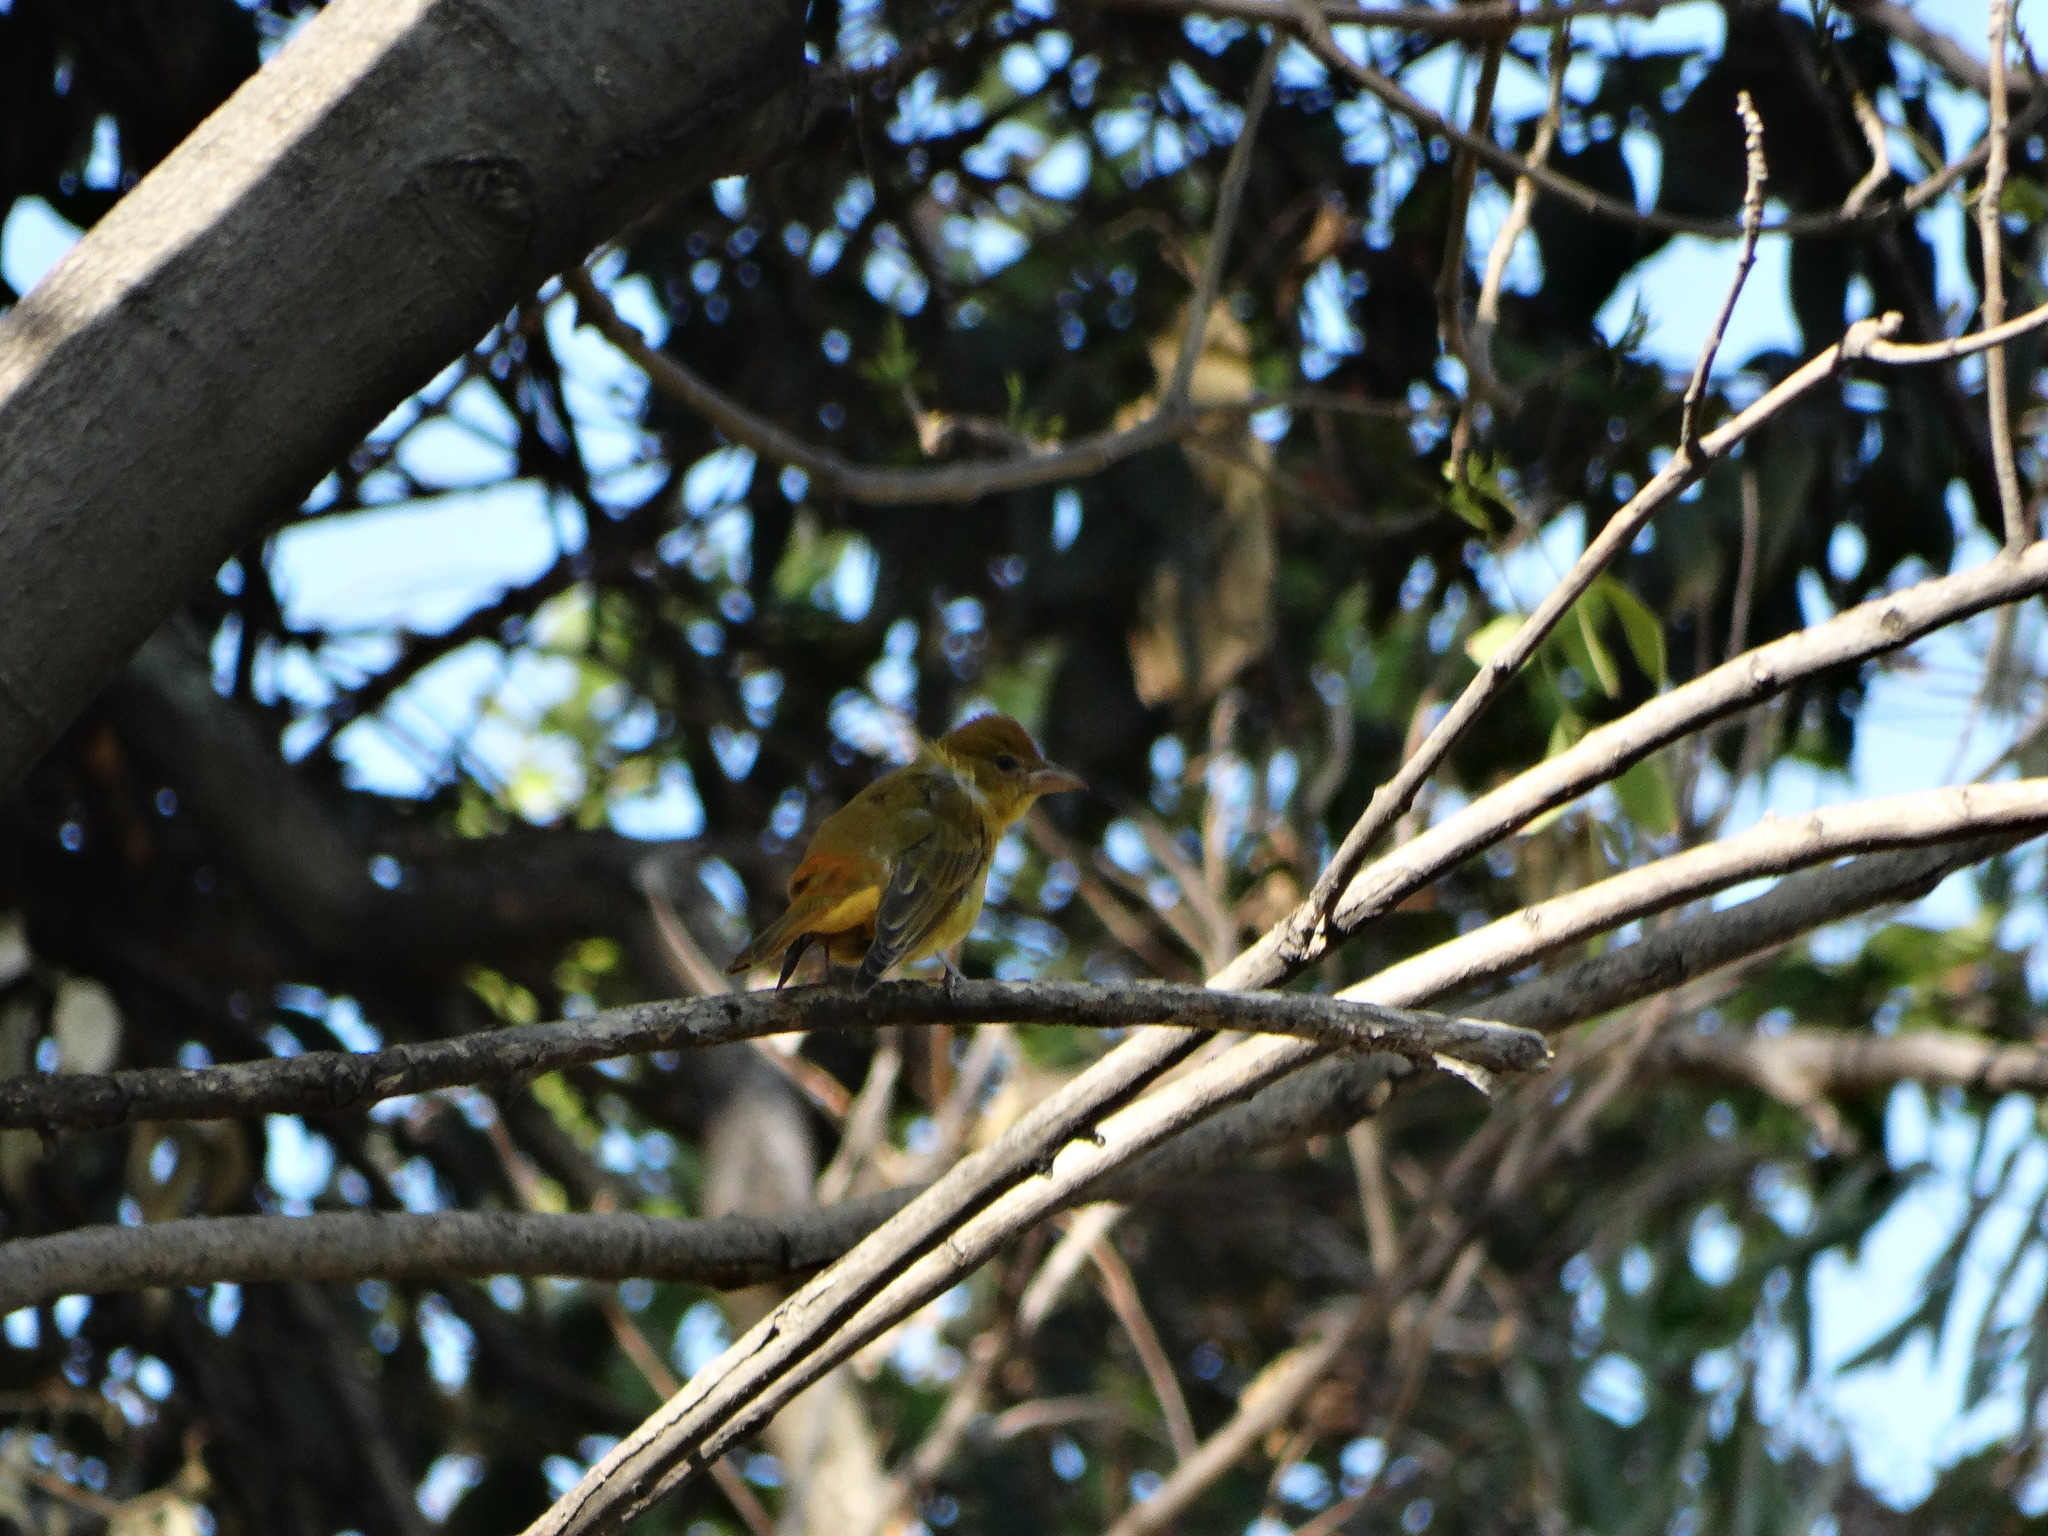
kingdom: Animalia
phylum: Chordata
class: Aves
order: Passeriformes
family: Cardinalidae
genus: Piranga
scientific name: Piranga rubra
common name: Summer tanager
